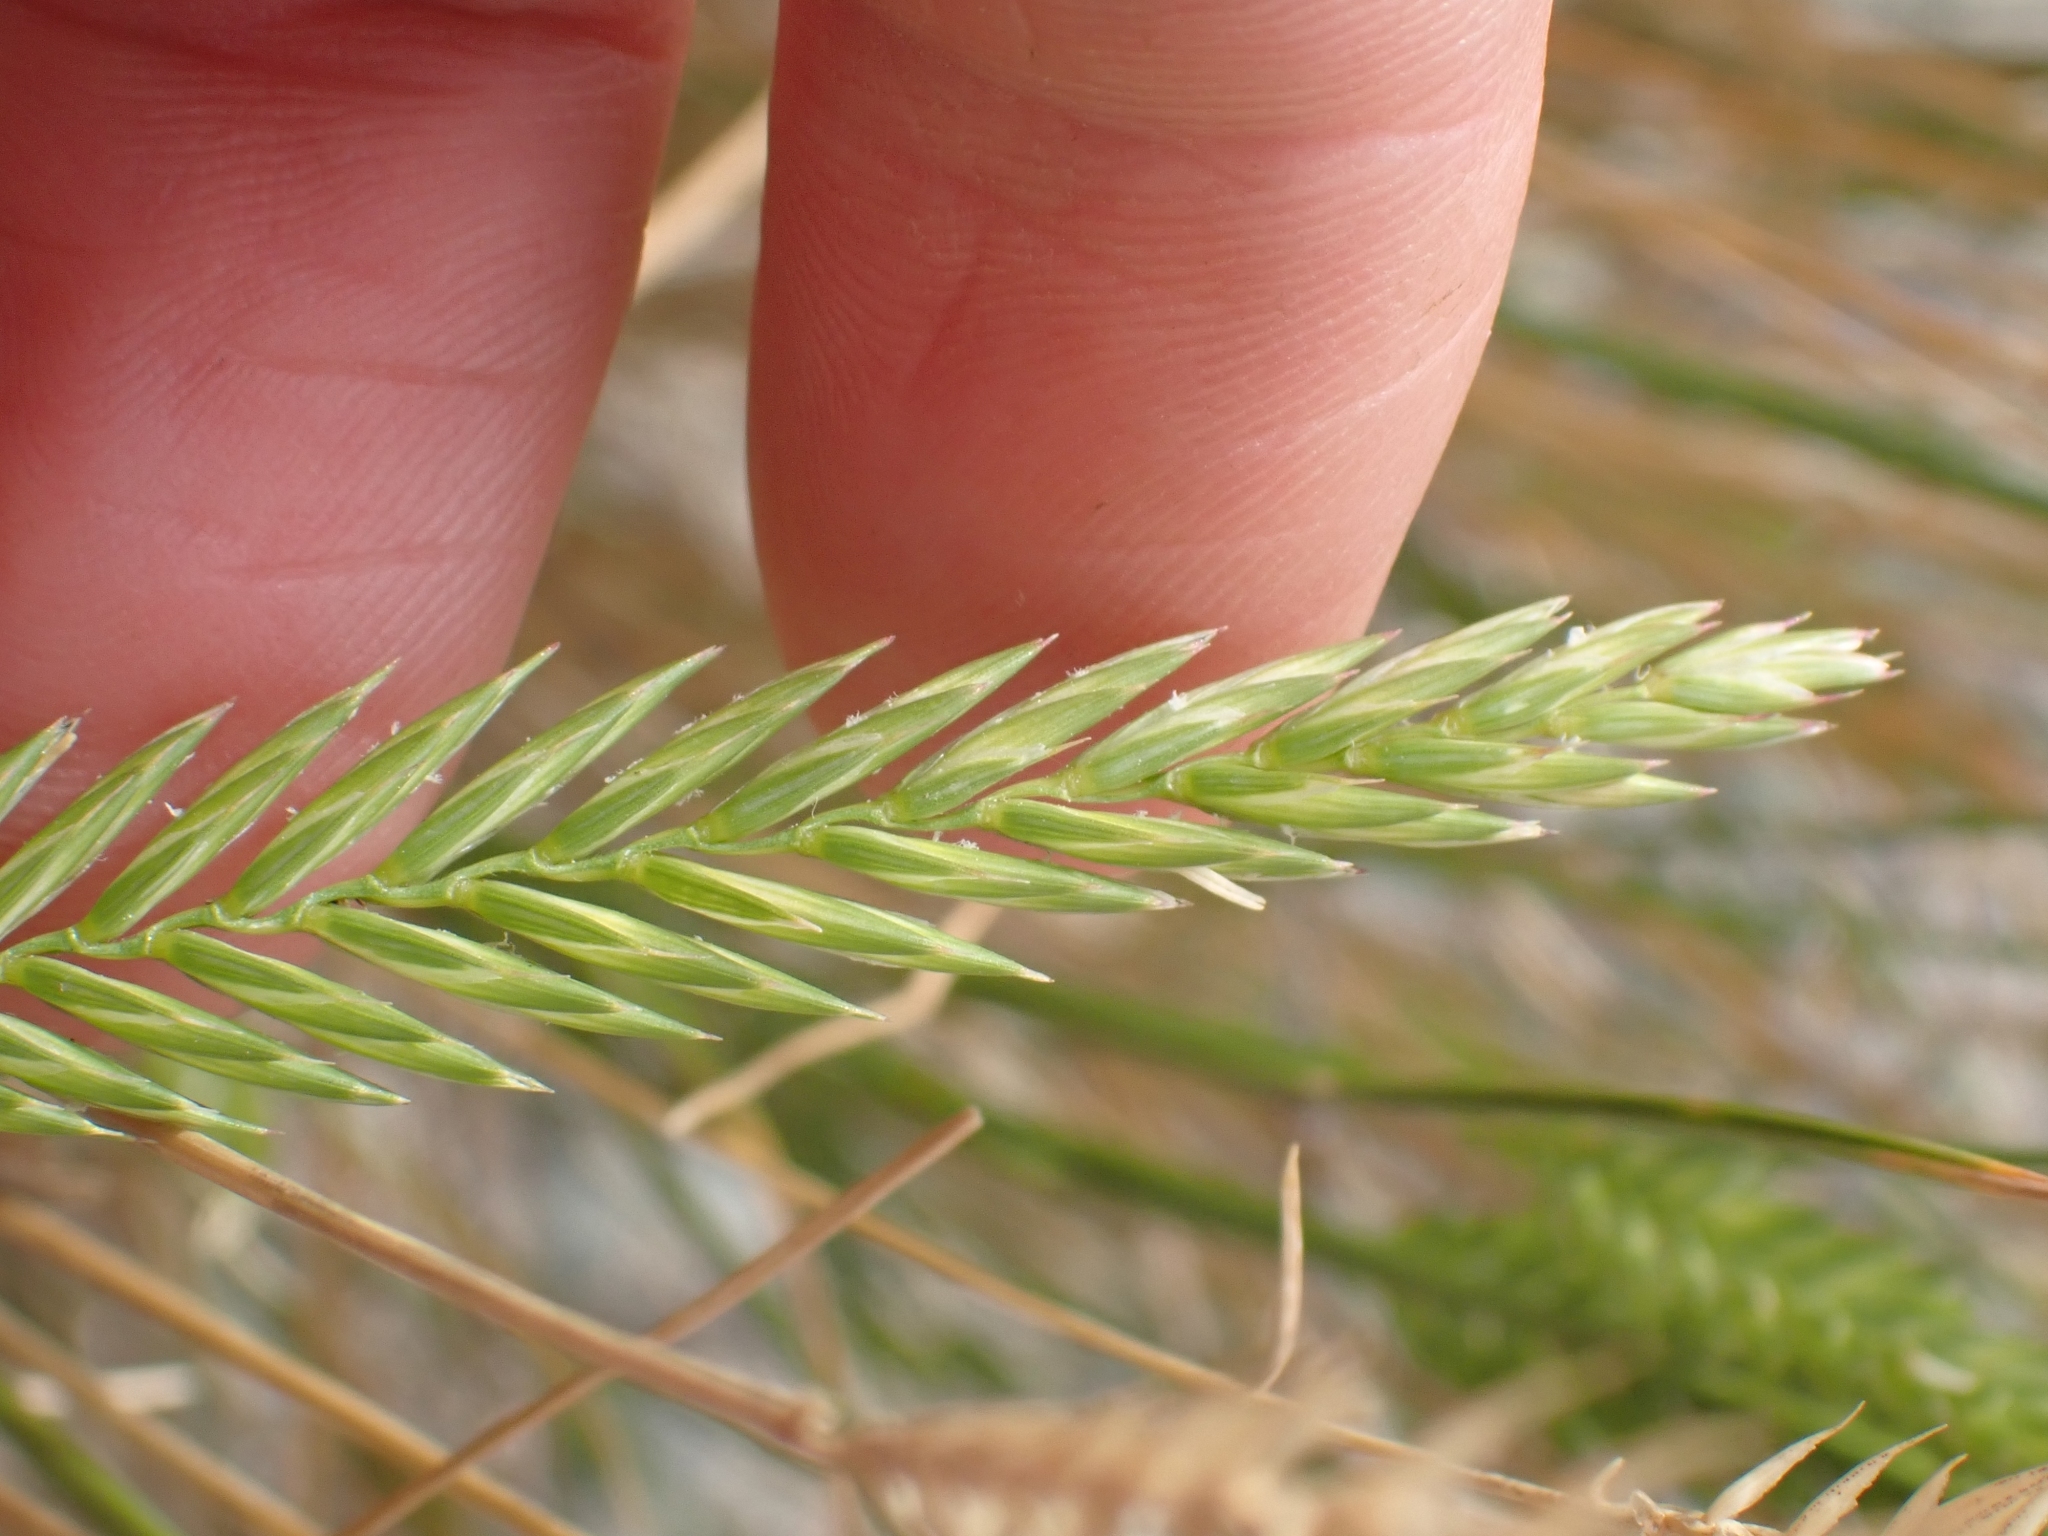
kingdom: Plantae
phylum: Tracheophyta
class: Liliopsida
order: Poales
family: Poaceae
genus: Agropyron
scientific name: Agropyron cristatum
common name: Crested wheatgrass
